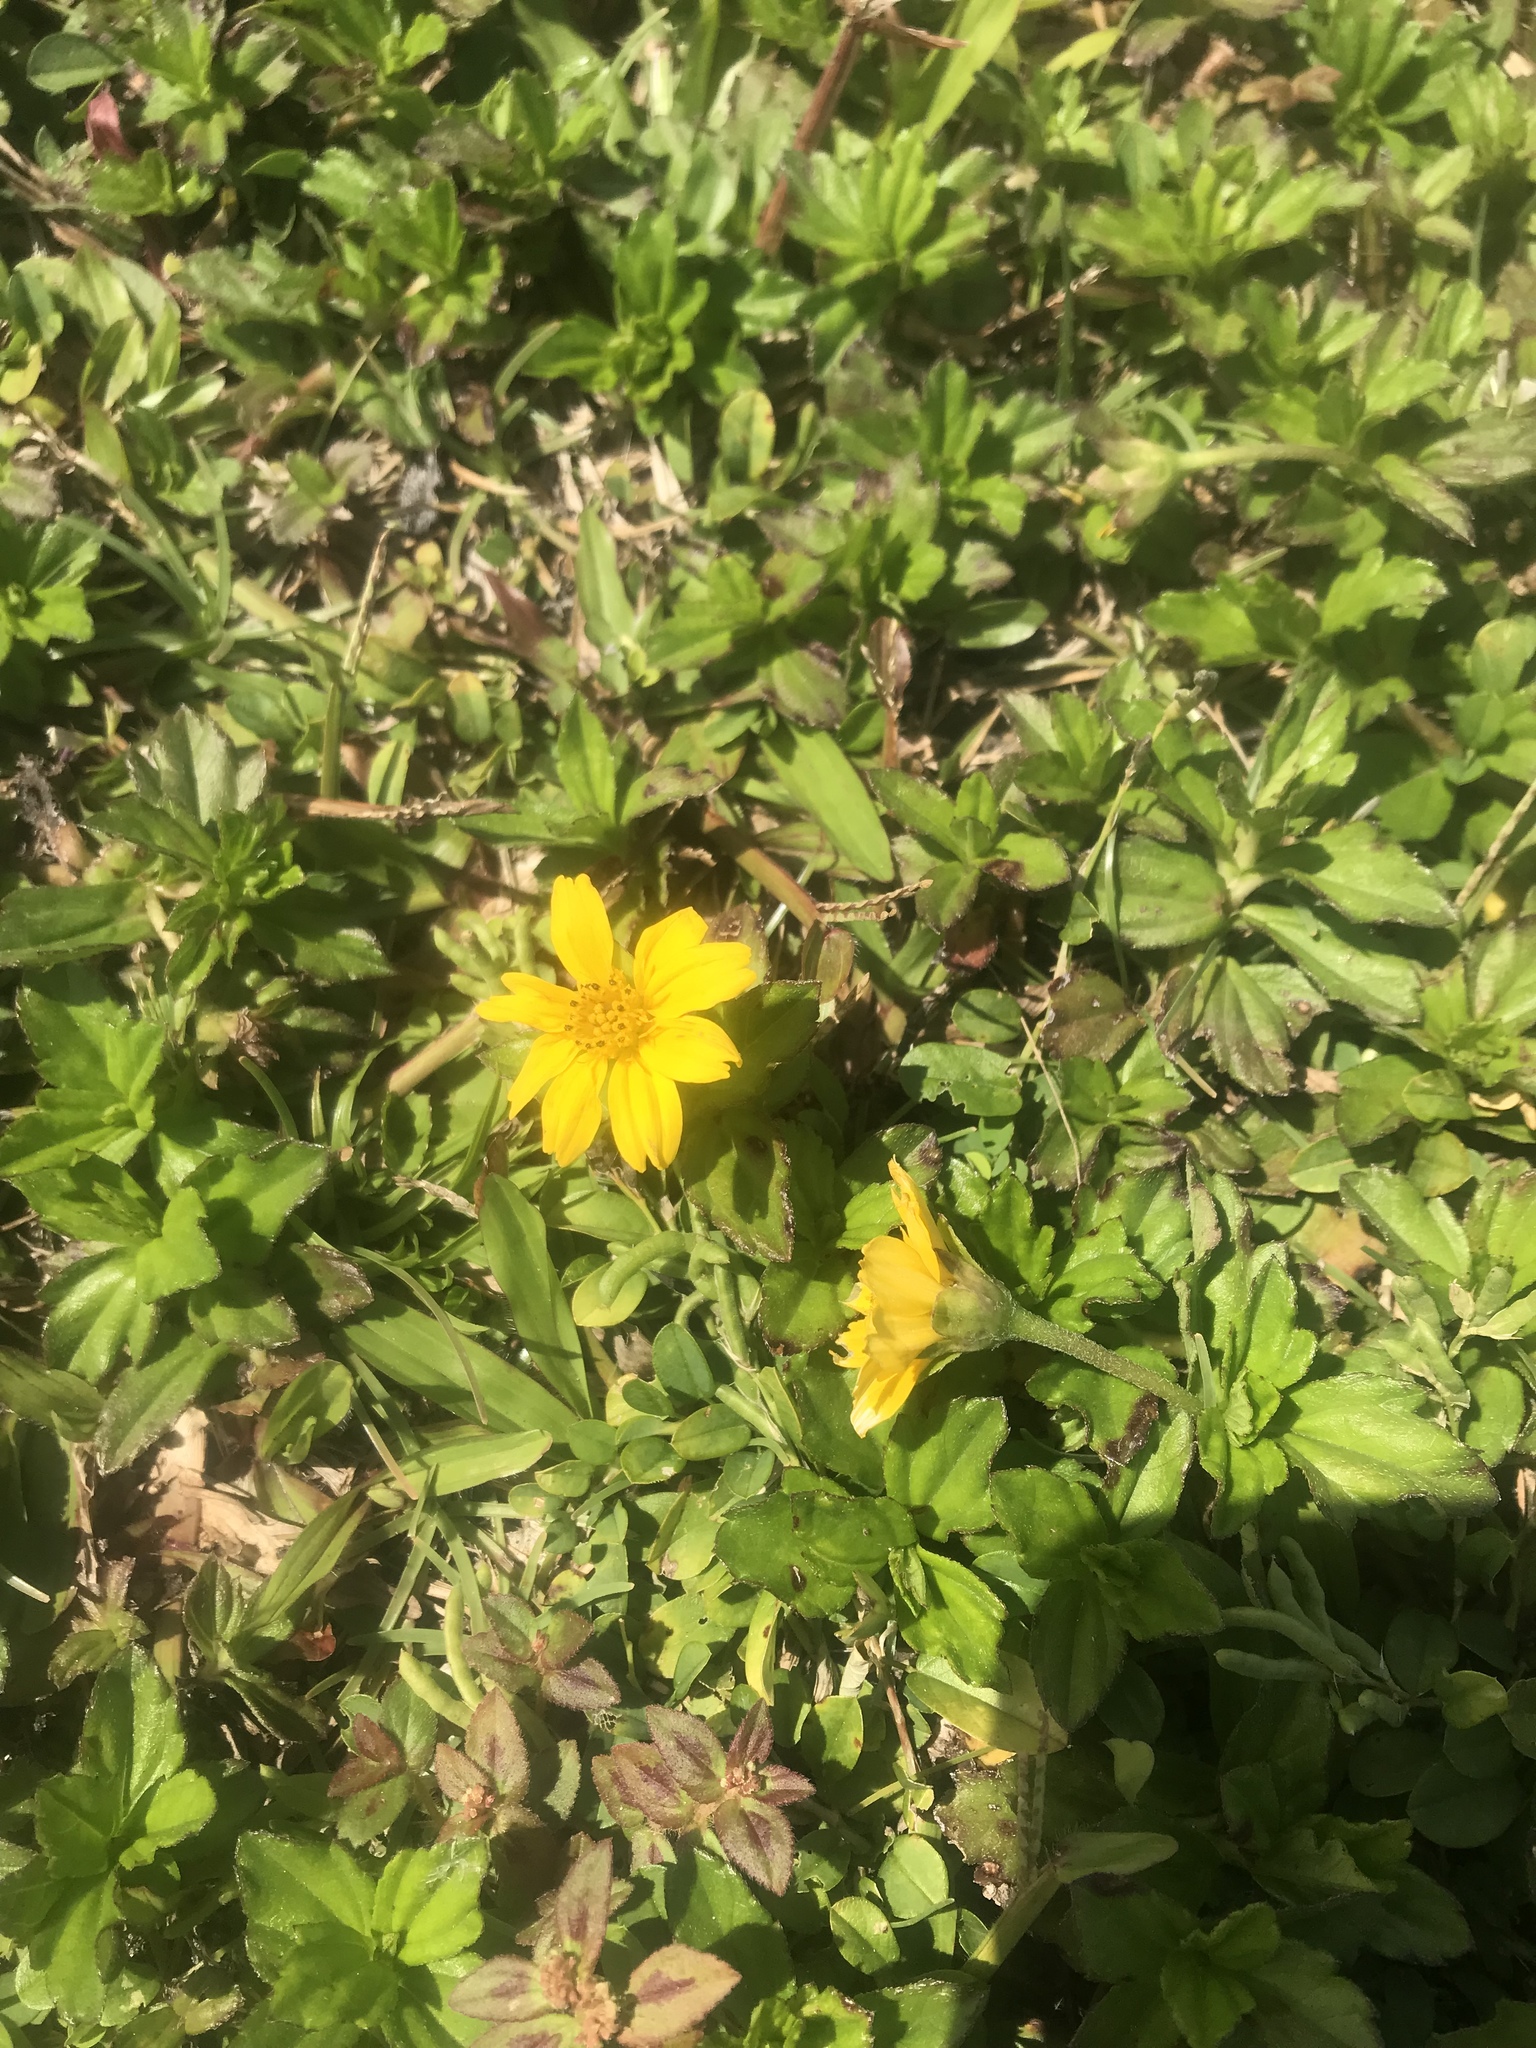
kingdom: Plantae
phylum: Tracheophyta
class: Magnoliopsida
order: Asterales
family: Asteraceae
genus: Sphagneticola
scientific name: Sphagneticola trilobata
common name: Bay biscayne creeping-oxeye
